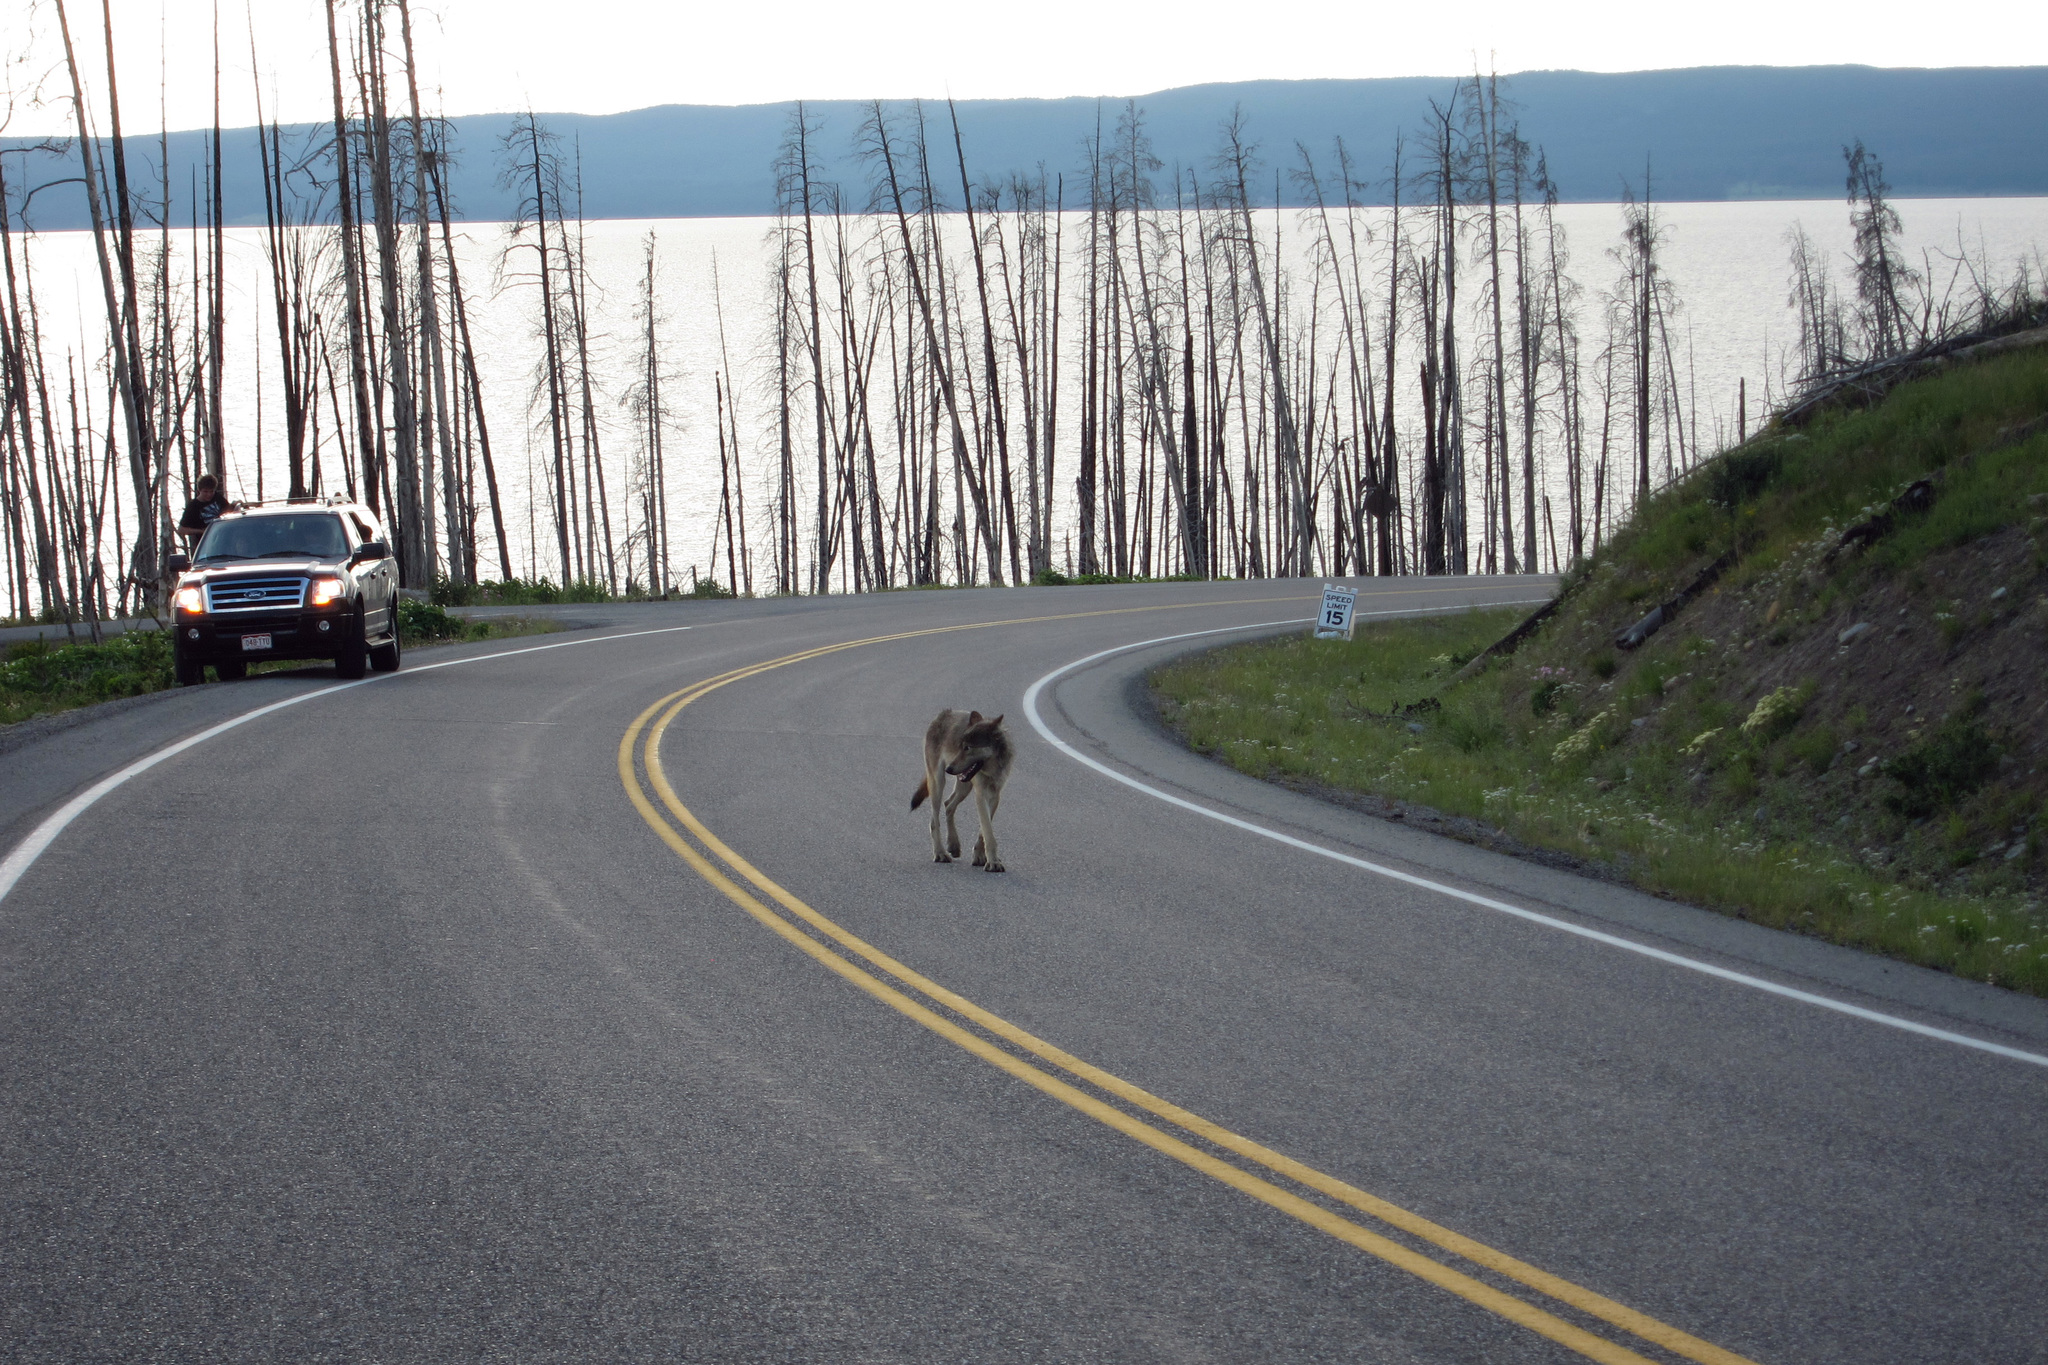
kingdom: Animalia
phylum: Chordata
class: Mammalia
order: Carnivora
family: Canidae
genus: Canis
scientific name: Canis lupus
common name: Gray wolf
